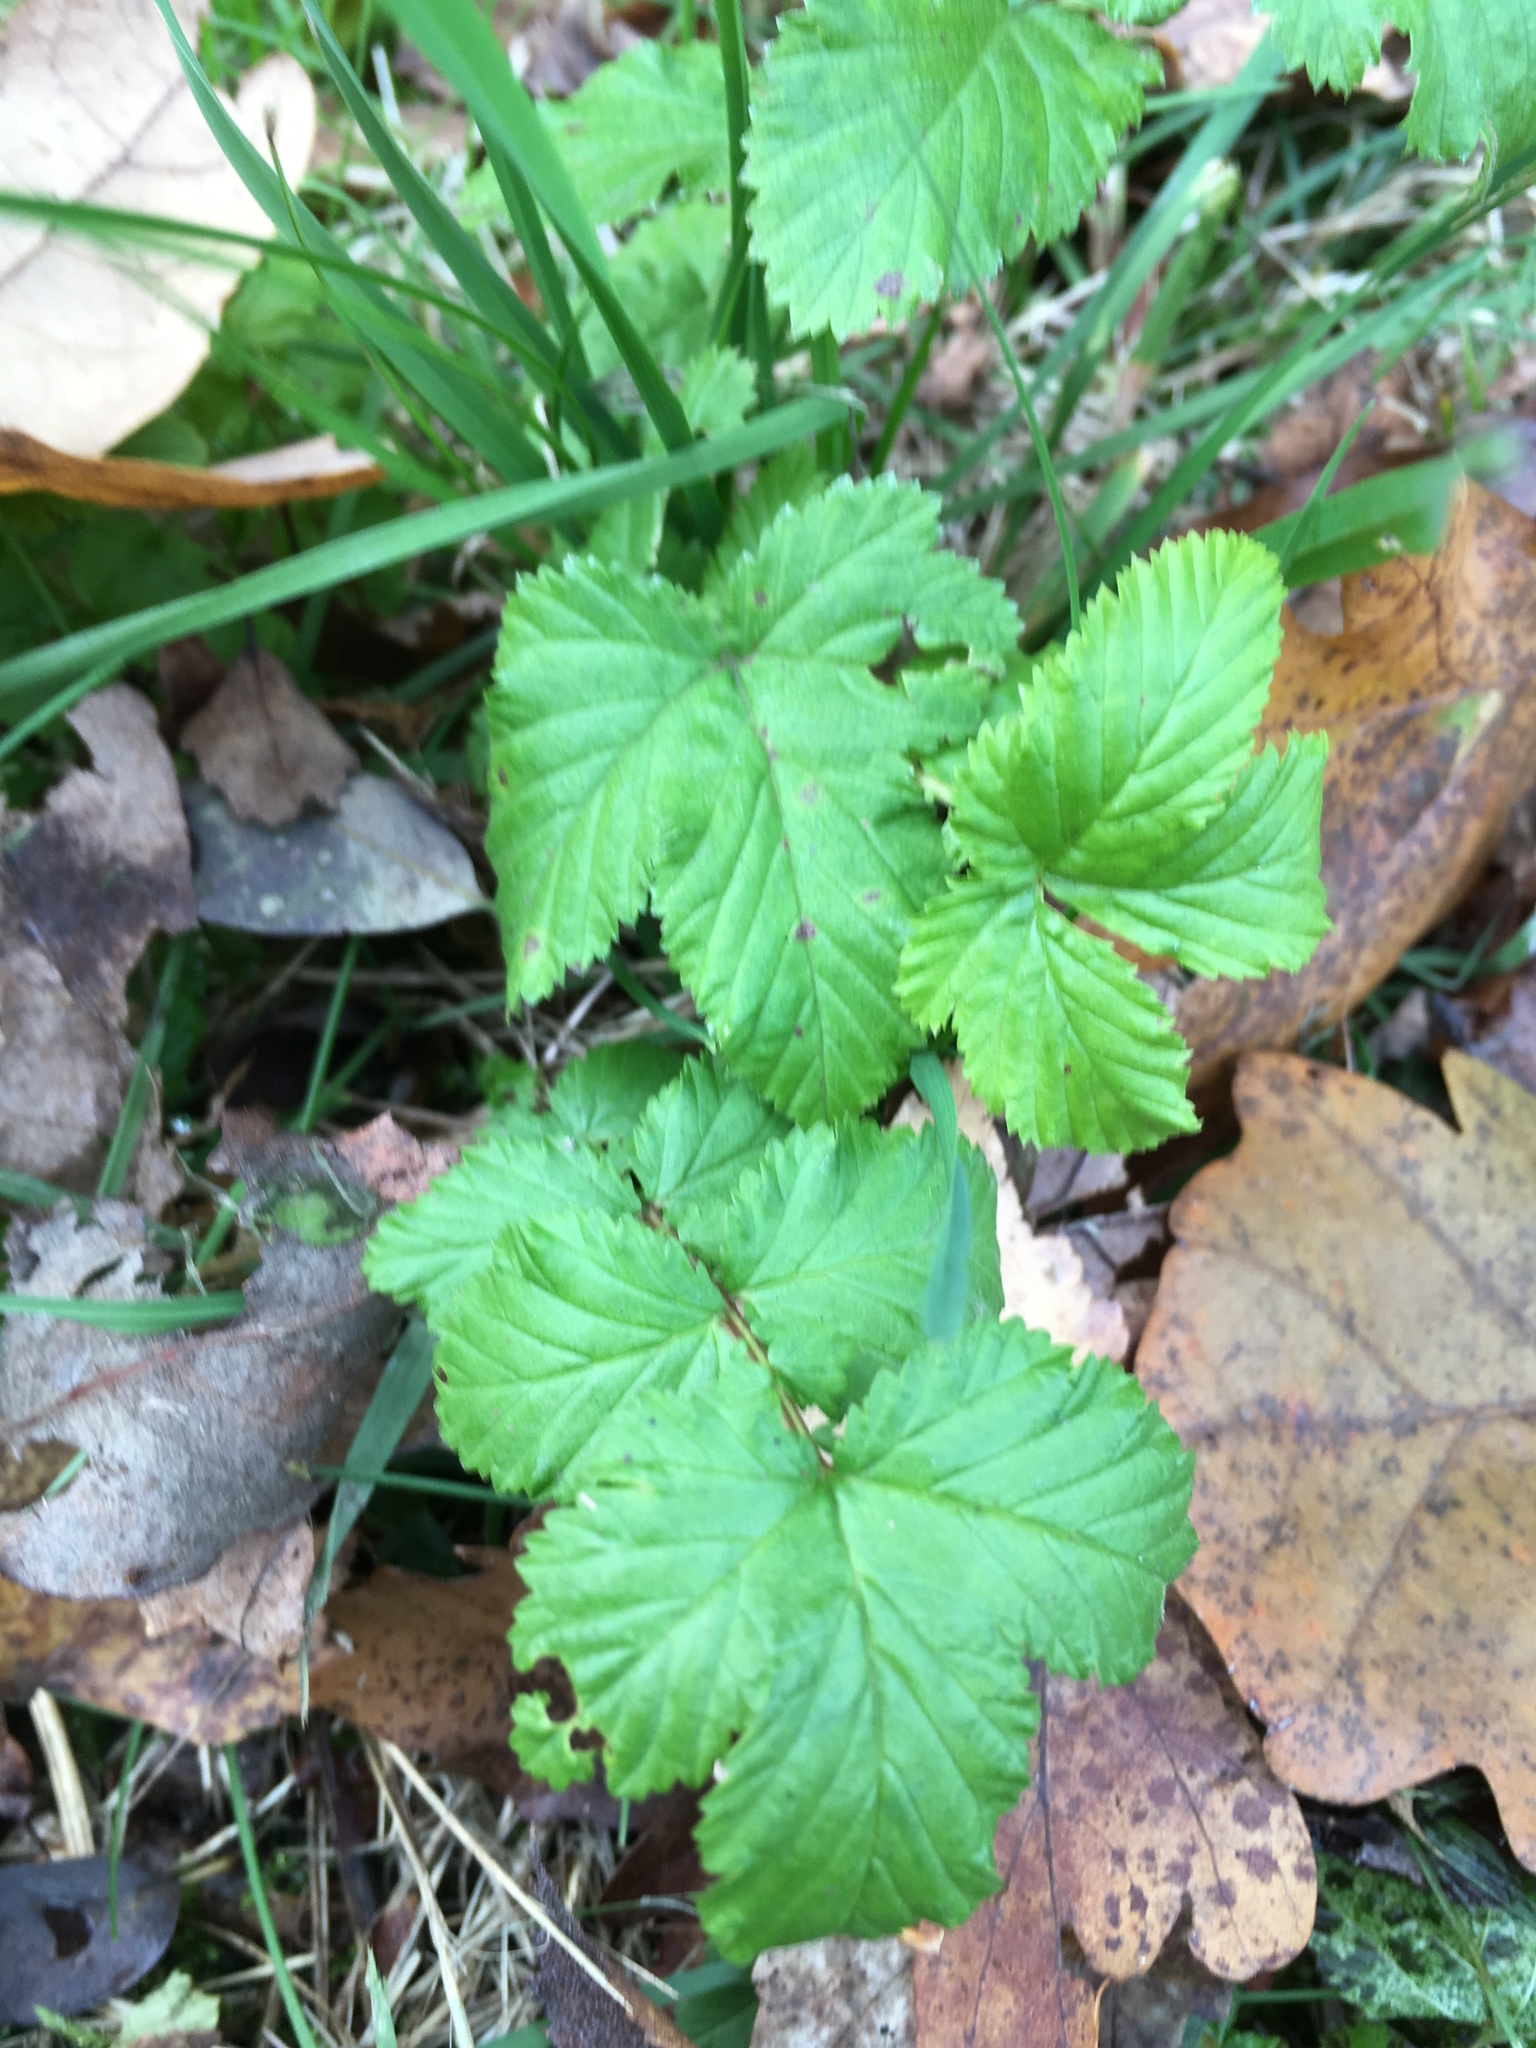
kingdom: Plantae
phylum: Tracheophyta
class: Magnoliopsida
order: Rosales
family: Rosaceae
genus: Filipendula
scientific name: Filipendula ulmaria
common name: Meadowsweet
